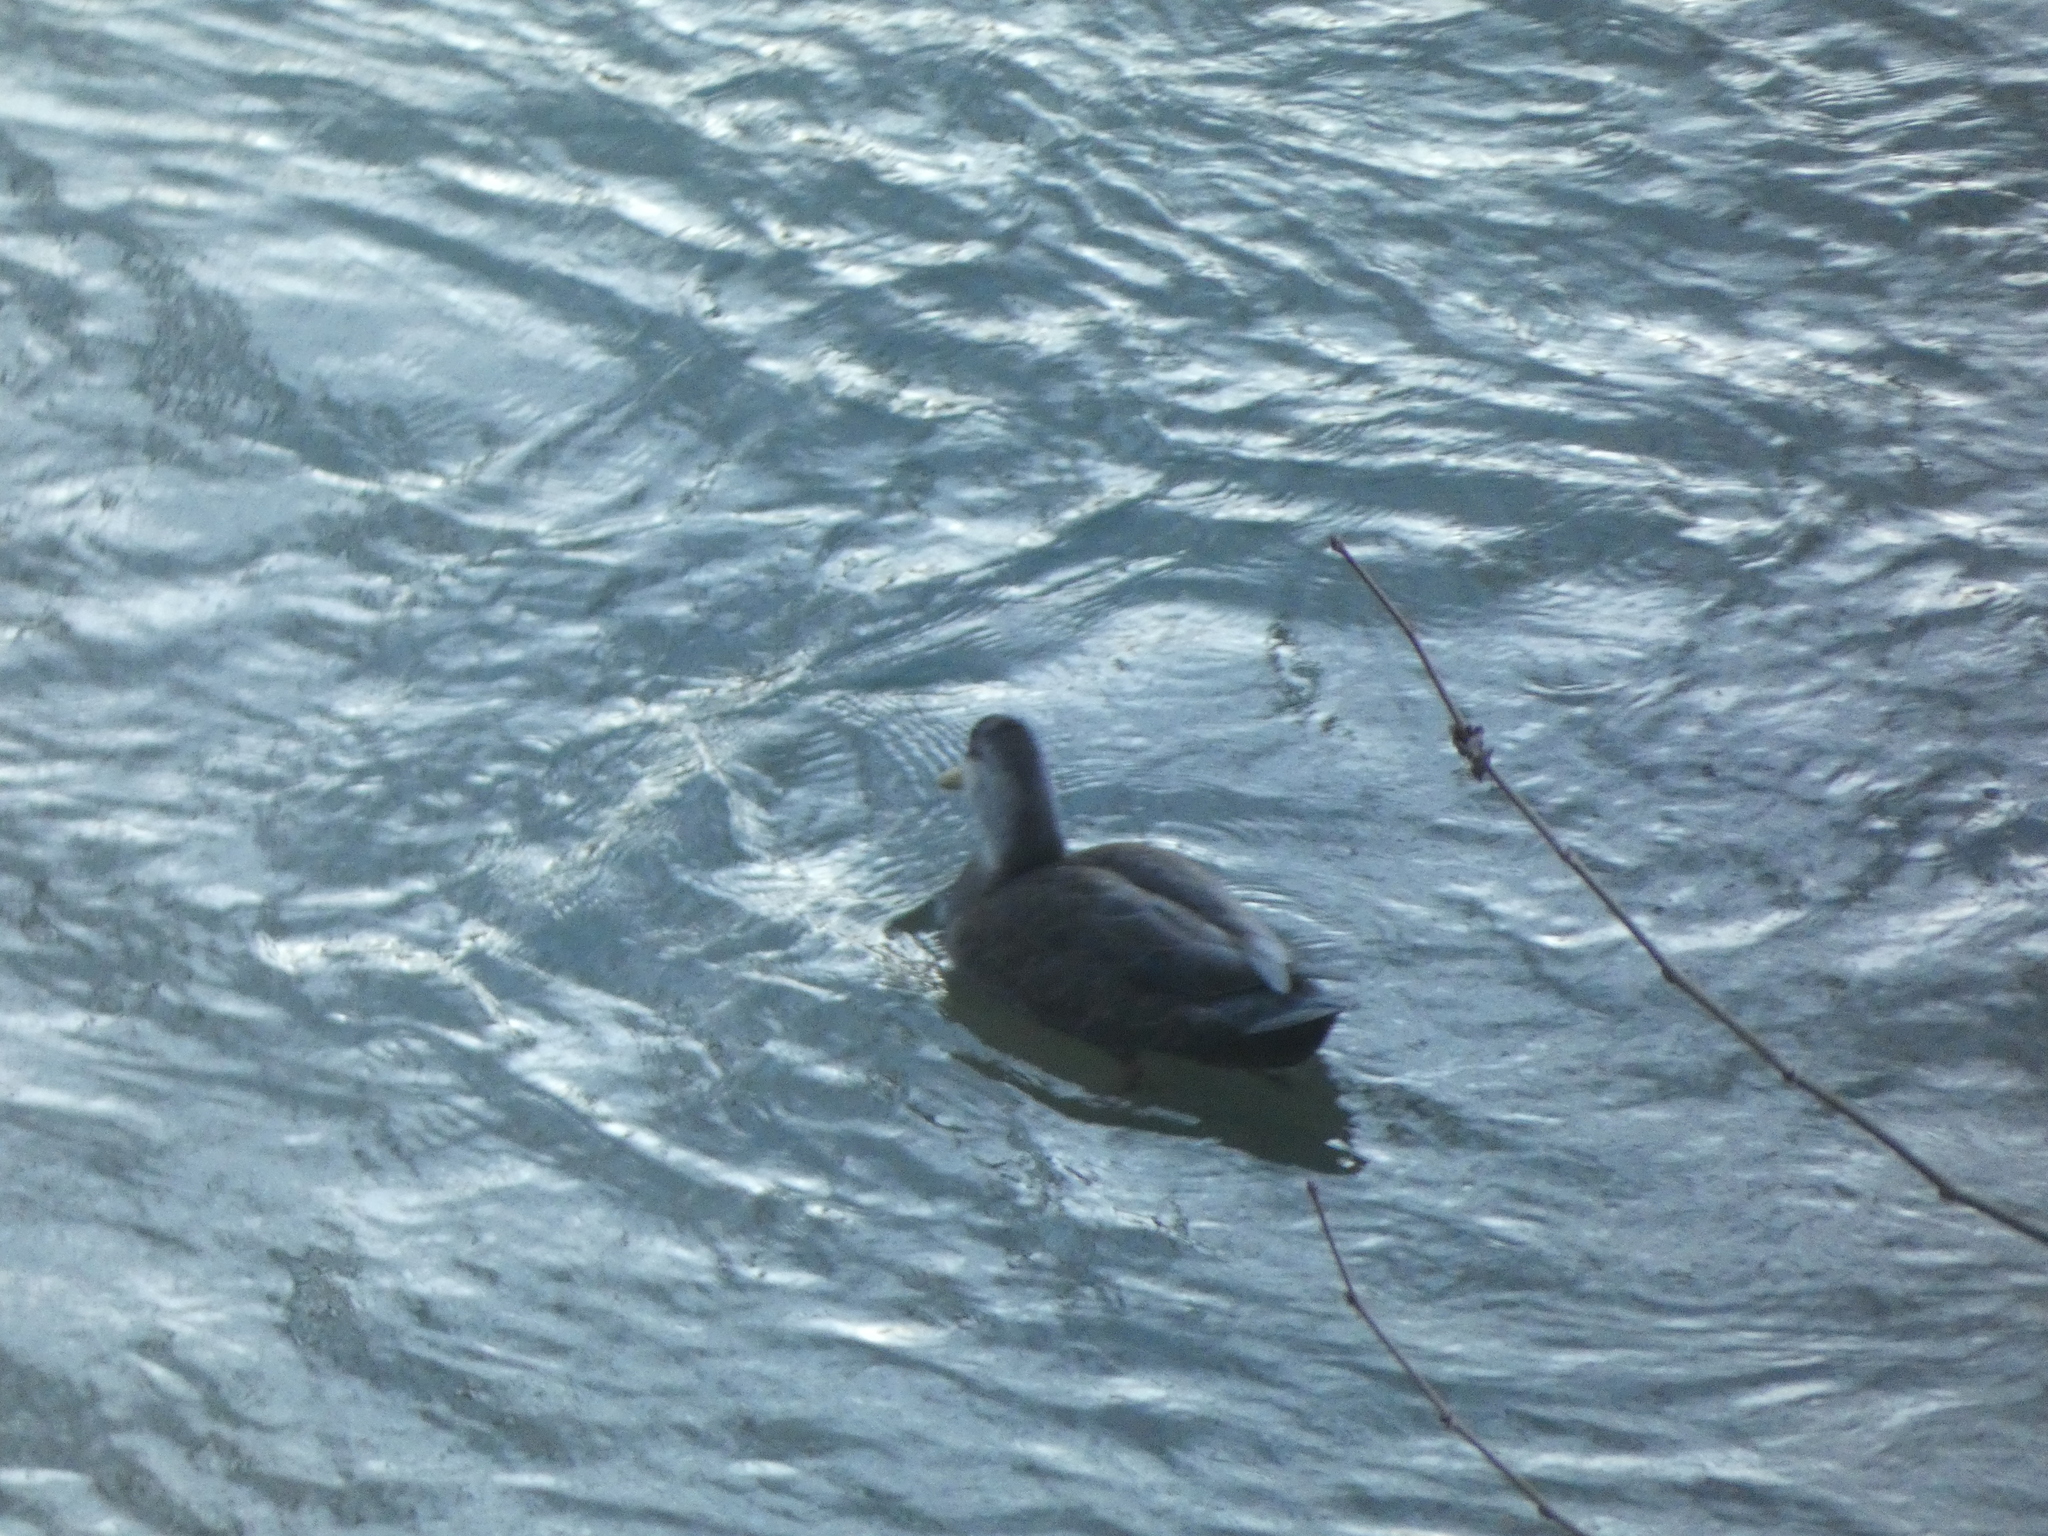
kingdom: Animalia
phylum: Chordata
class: Aves
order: Anseriformes
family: Anatidae
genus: Anas
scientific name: Anas rubripes
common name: American black duck
